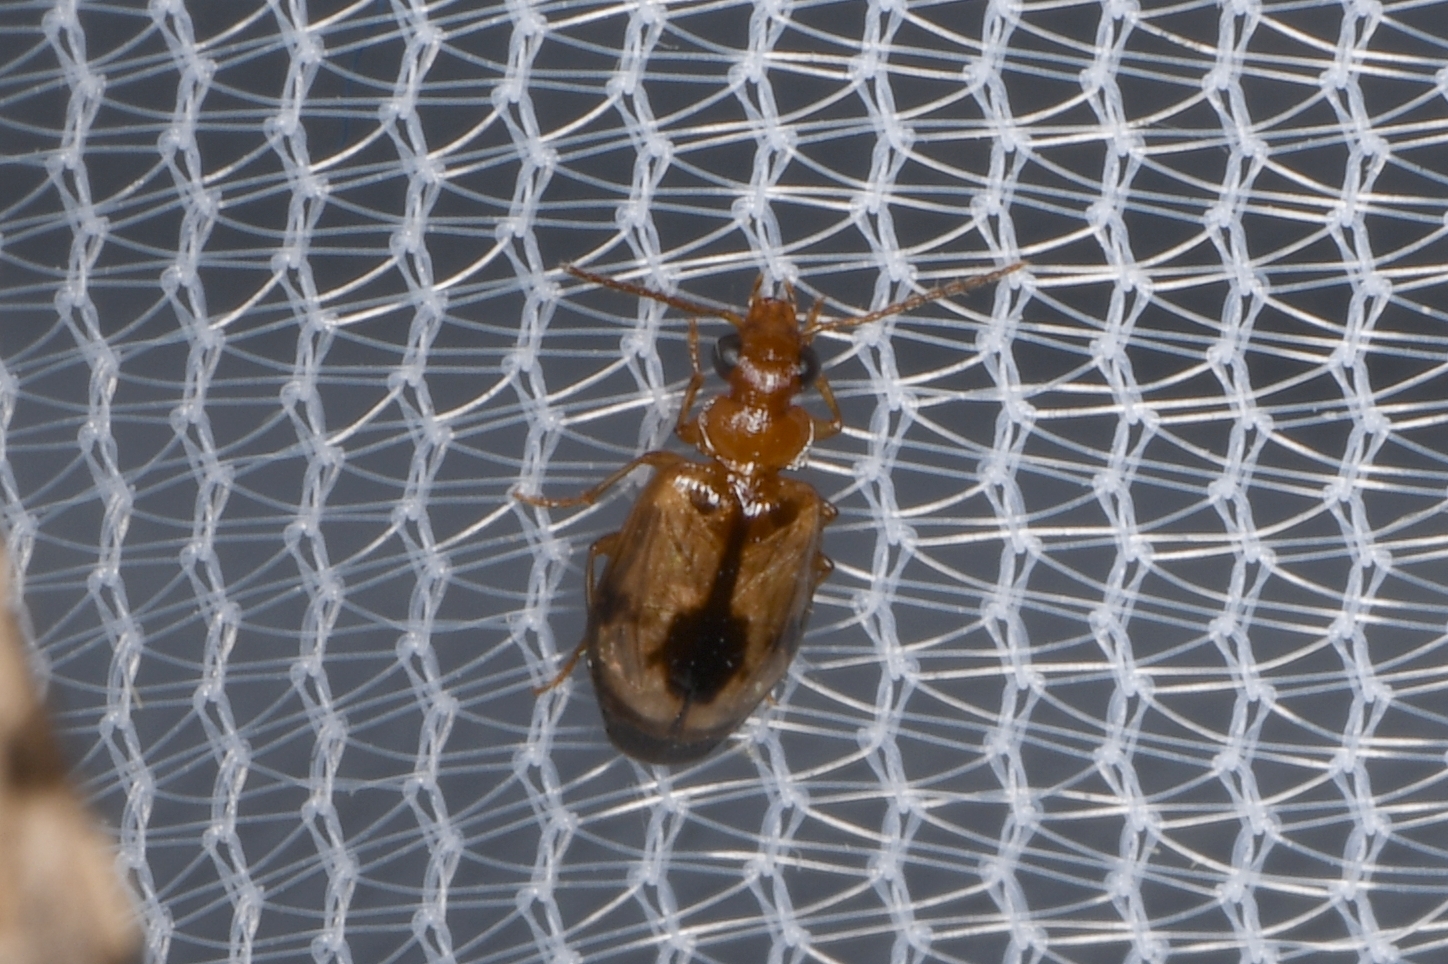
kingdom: Animalia
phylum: Arthropoda
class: Insecta
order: Coleoptera
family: Carabidae
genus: Lebia
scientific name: Lebia abdita
